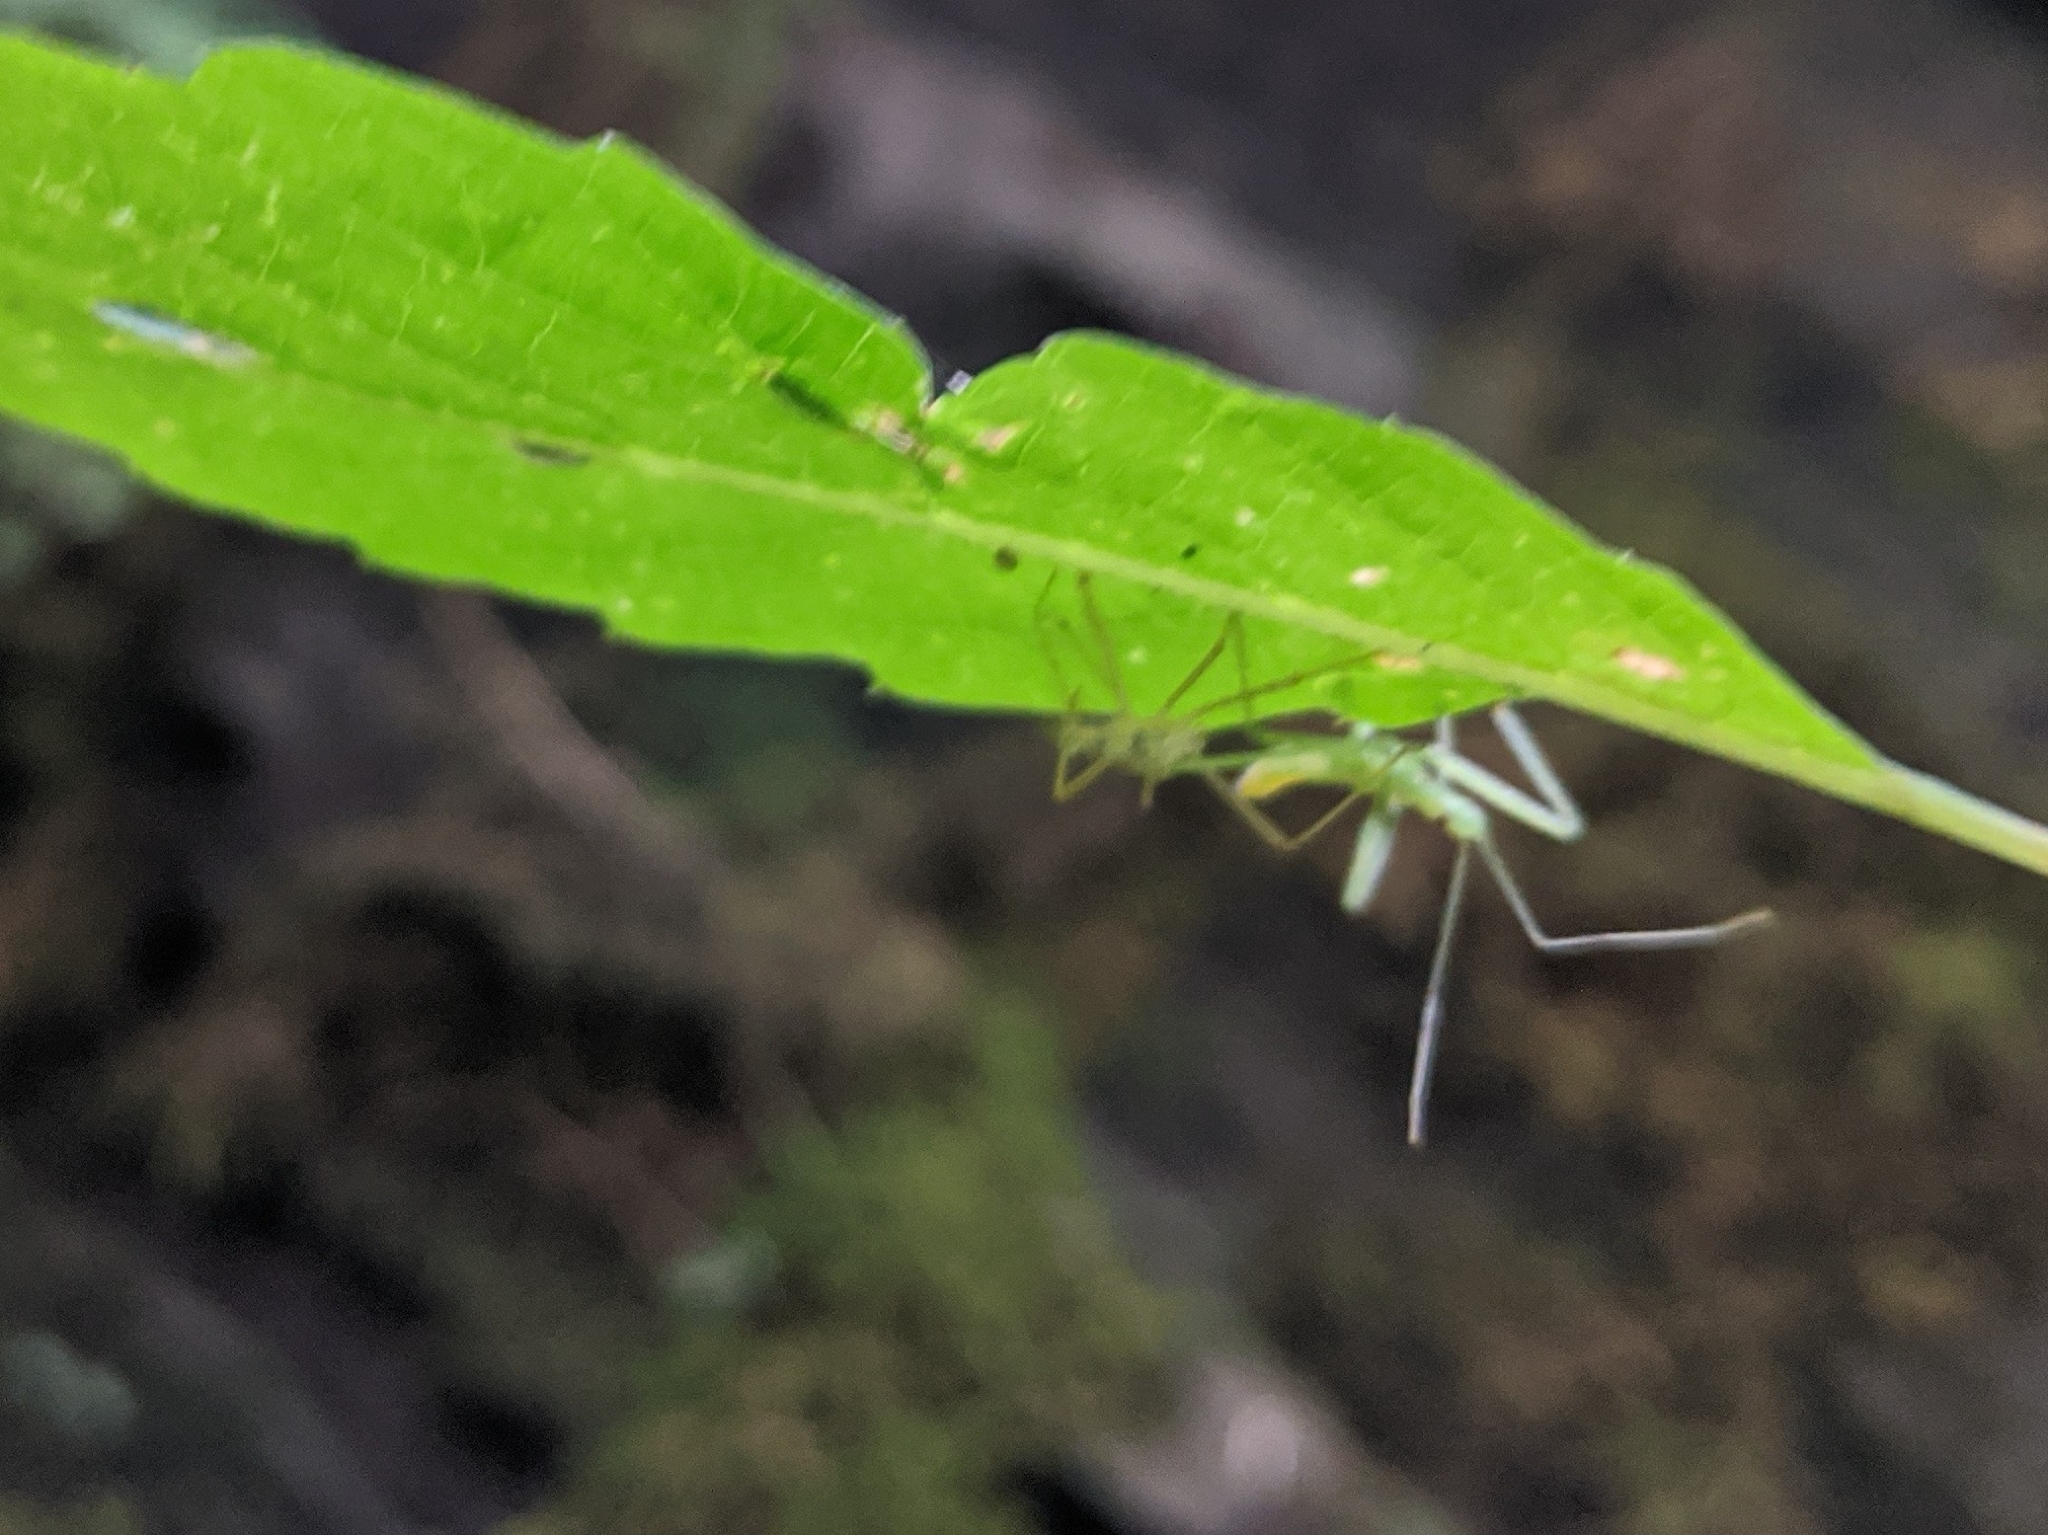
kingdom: Animalia
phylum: Arthropoda
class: Insecta
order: Hemiptera
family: Reduviidae
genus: Zelus
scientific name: Zelus luridus
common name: Pale green assassin bug
